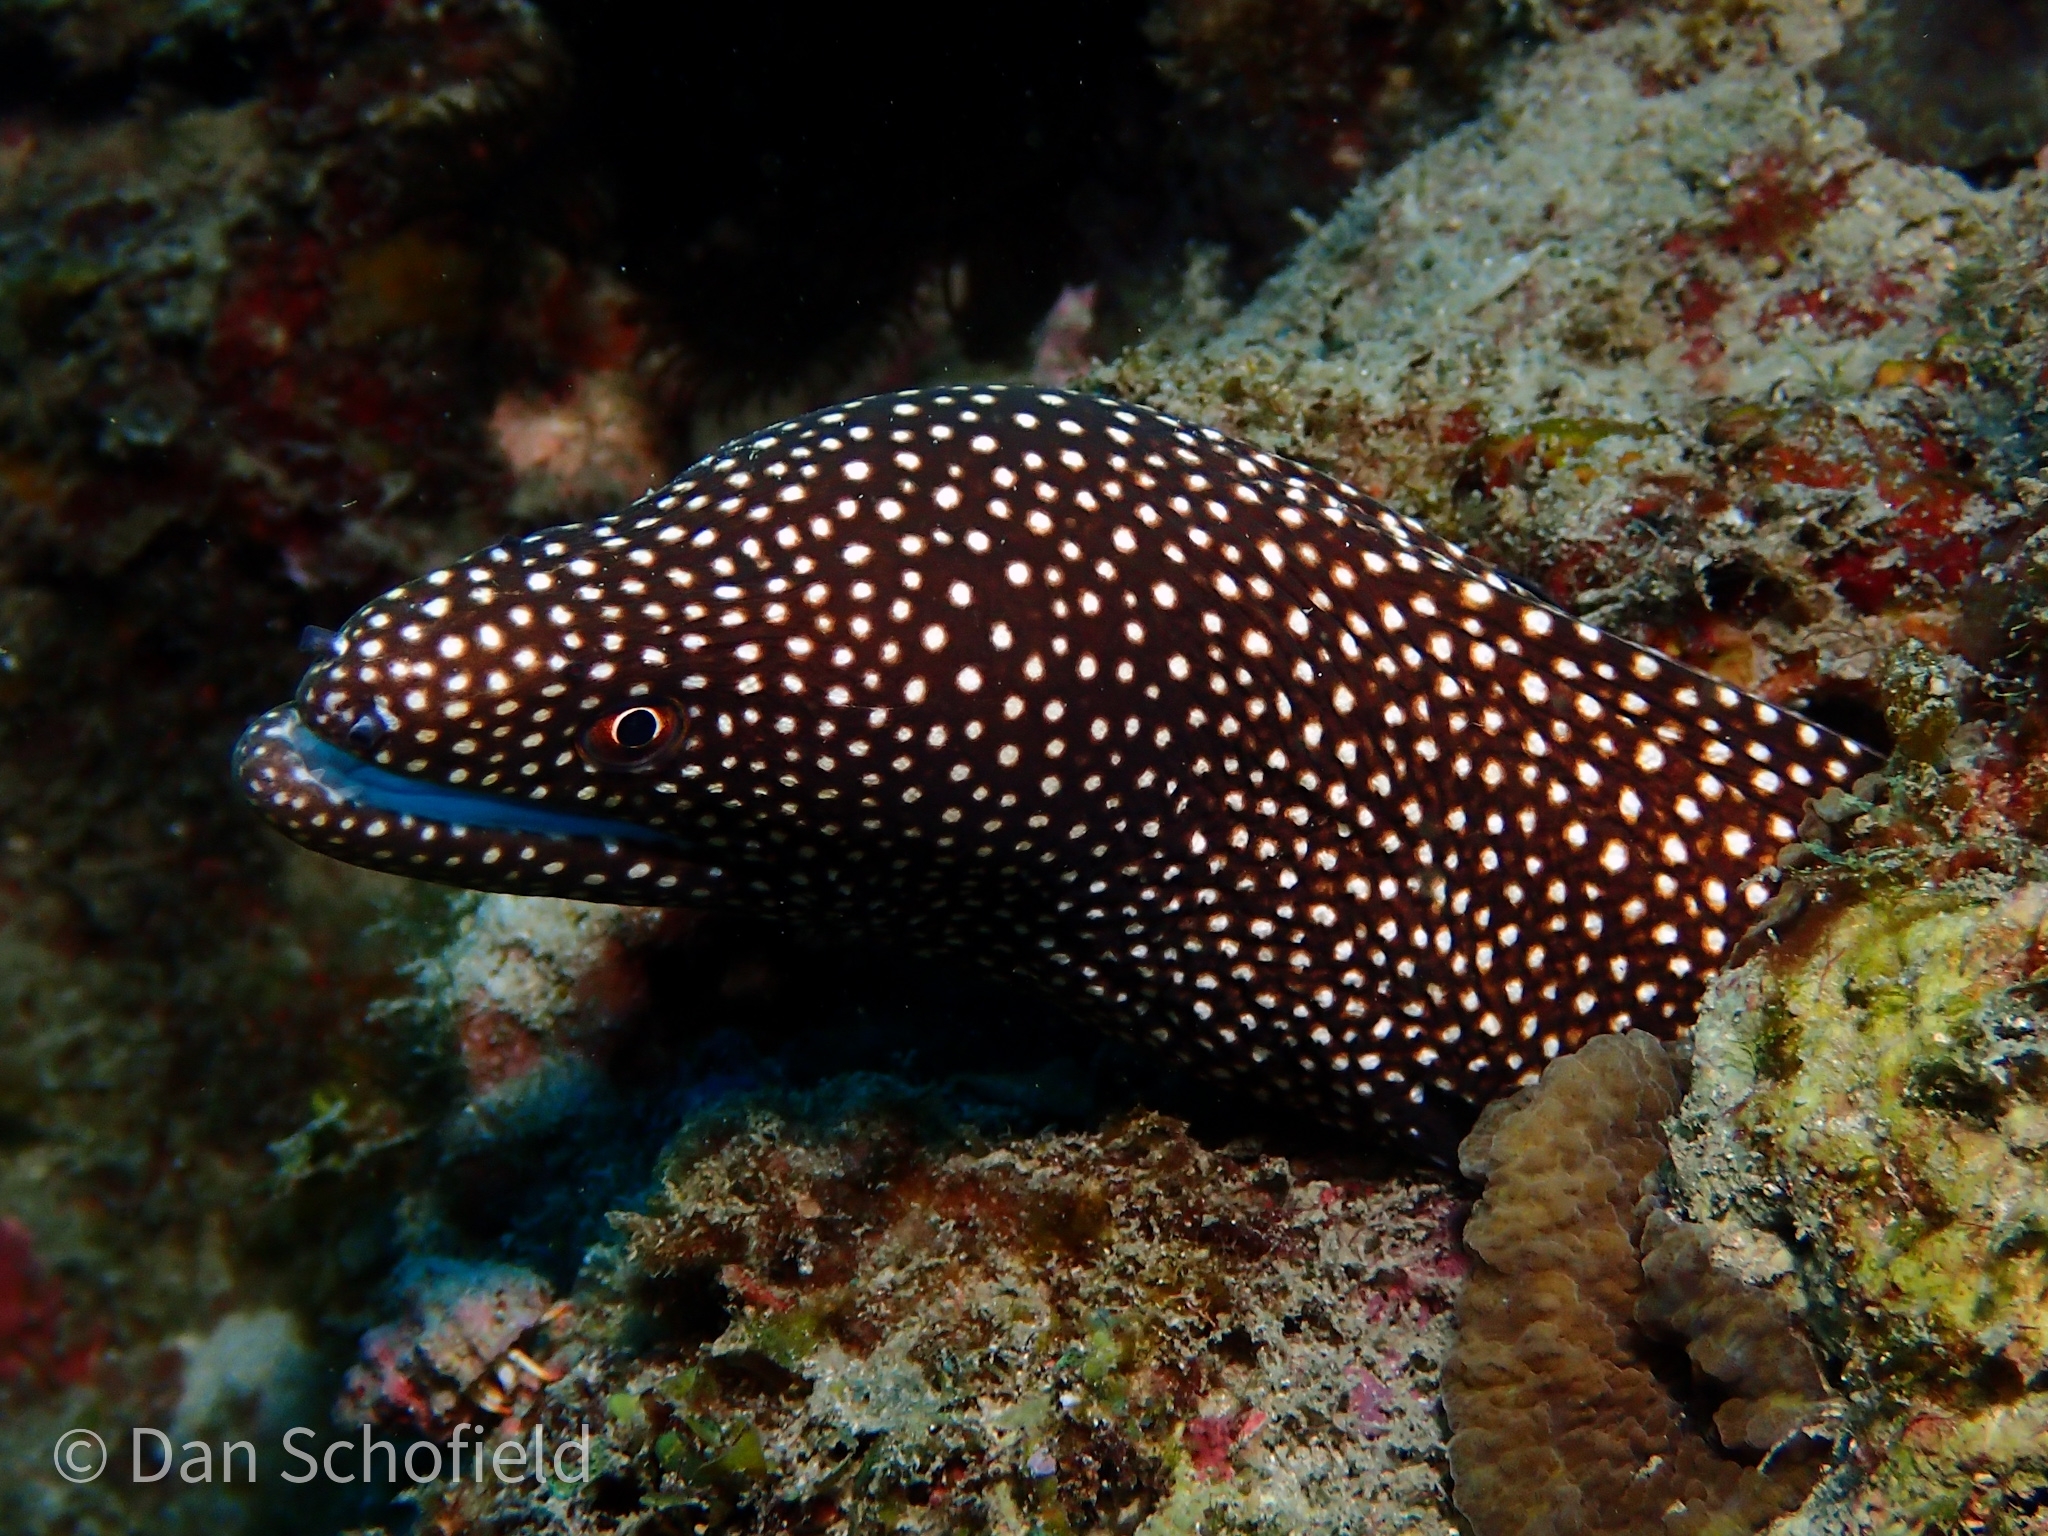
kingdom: Animalia
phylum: Chordata
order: Anguilliformes
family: Muraenidae
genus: Gymnothorax
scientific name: Gymnothorax meleagris
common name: Guineafowl moray
